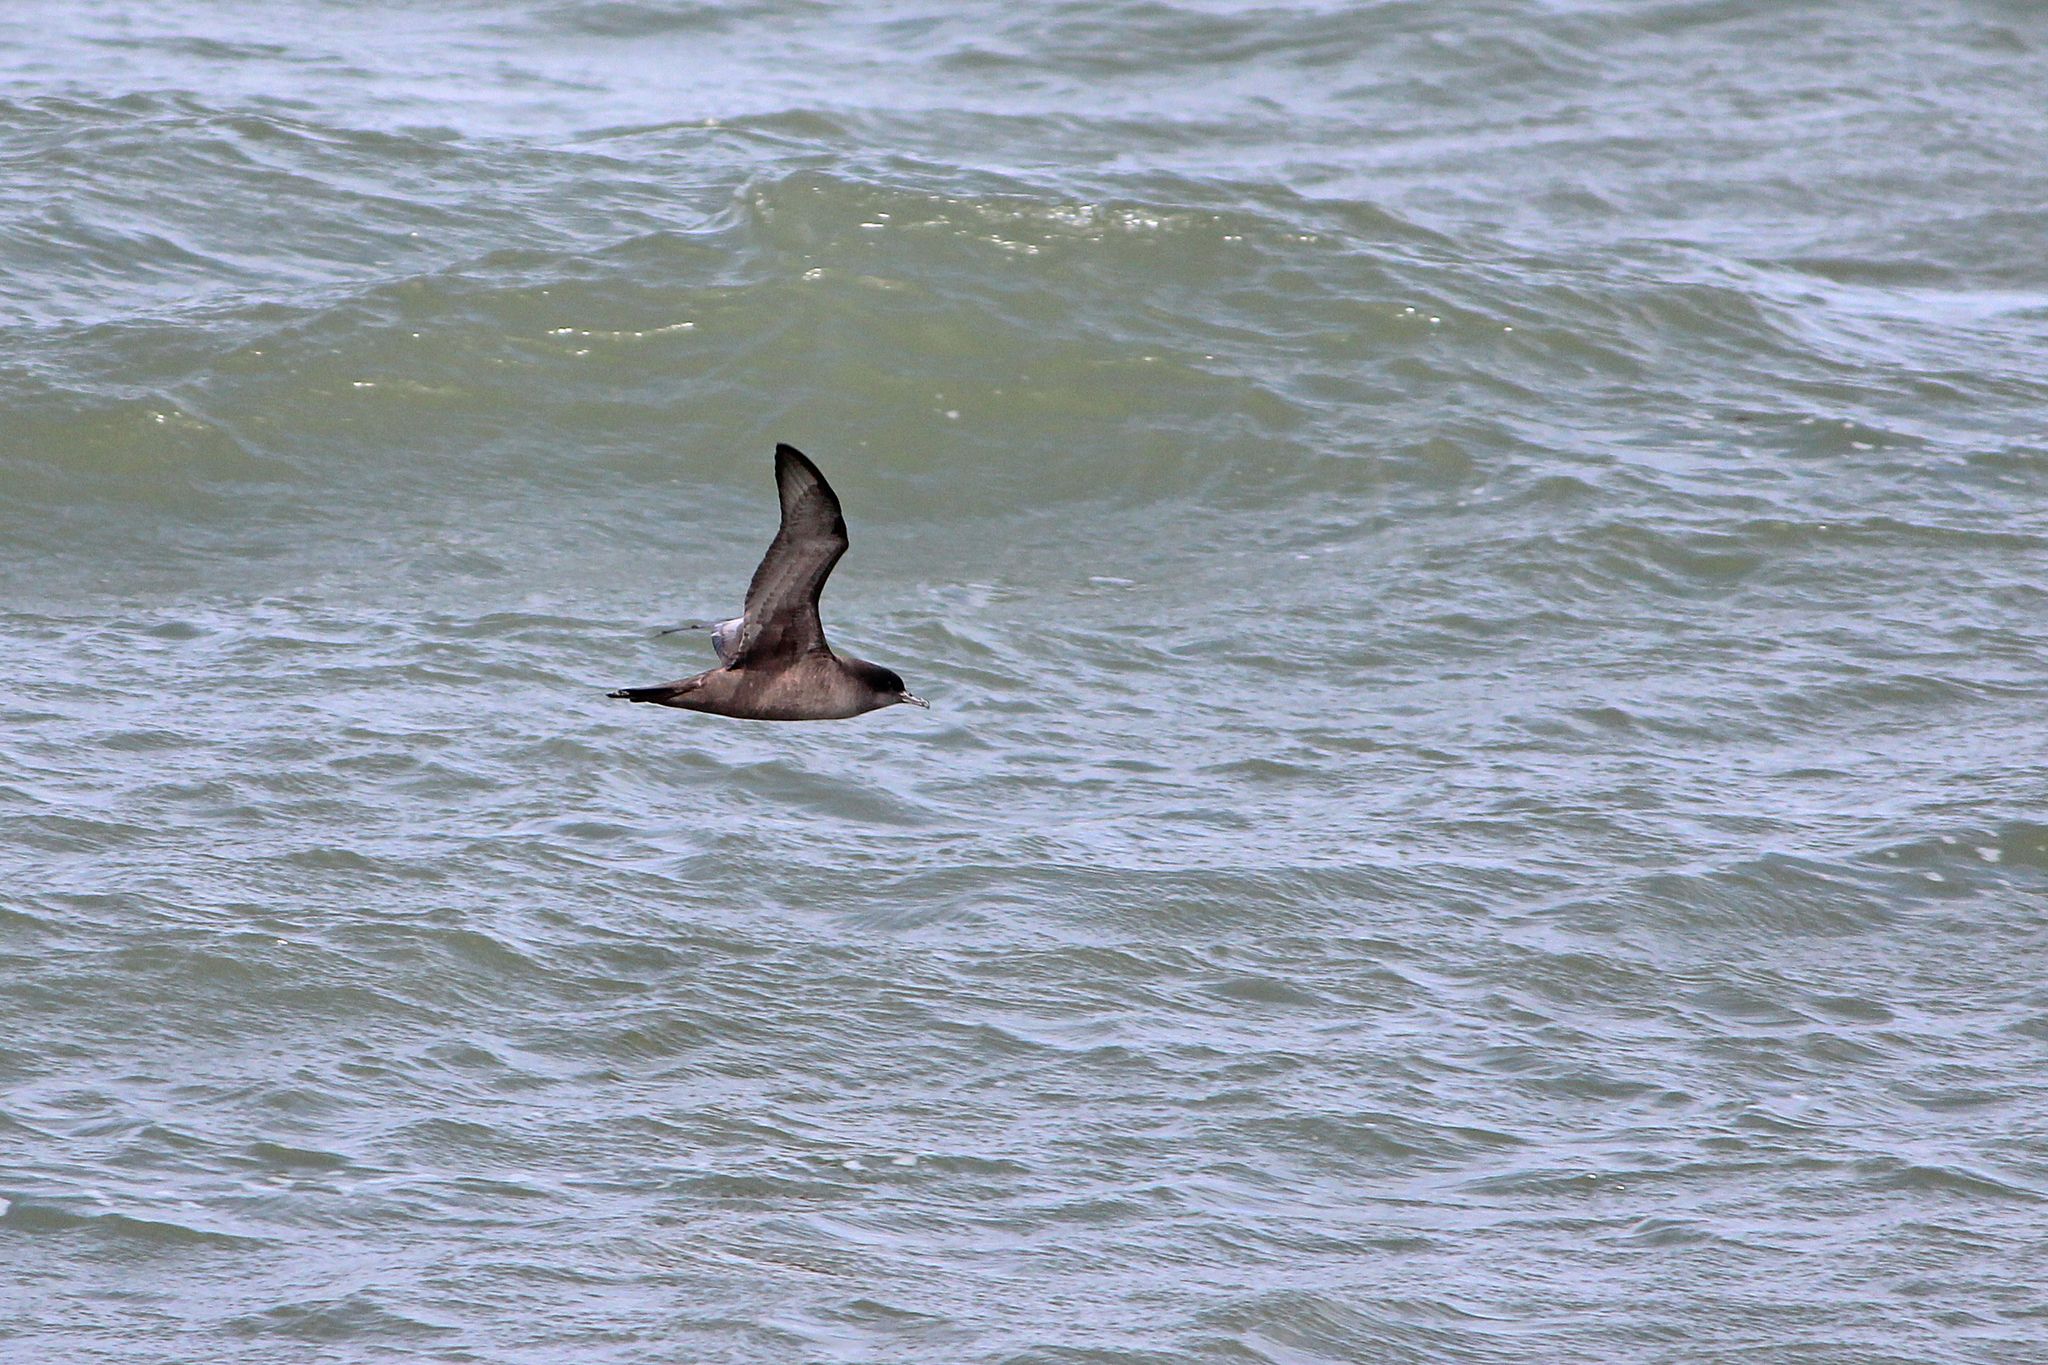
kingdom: Animalia
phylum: Chordata
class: Aves
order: Procellariiformes
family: Procellariidae
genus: Puffinus
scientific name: Puffinus tenuirostris
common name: Short-tailed shearwater
